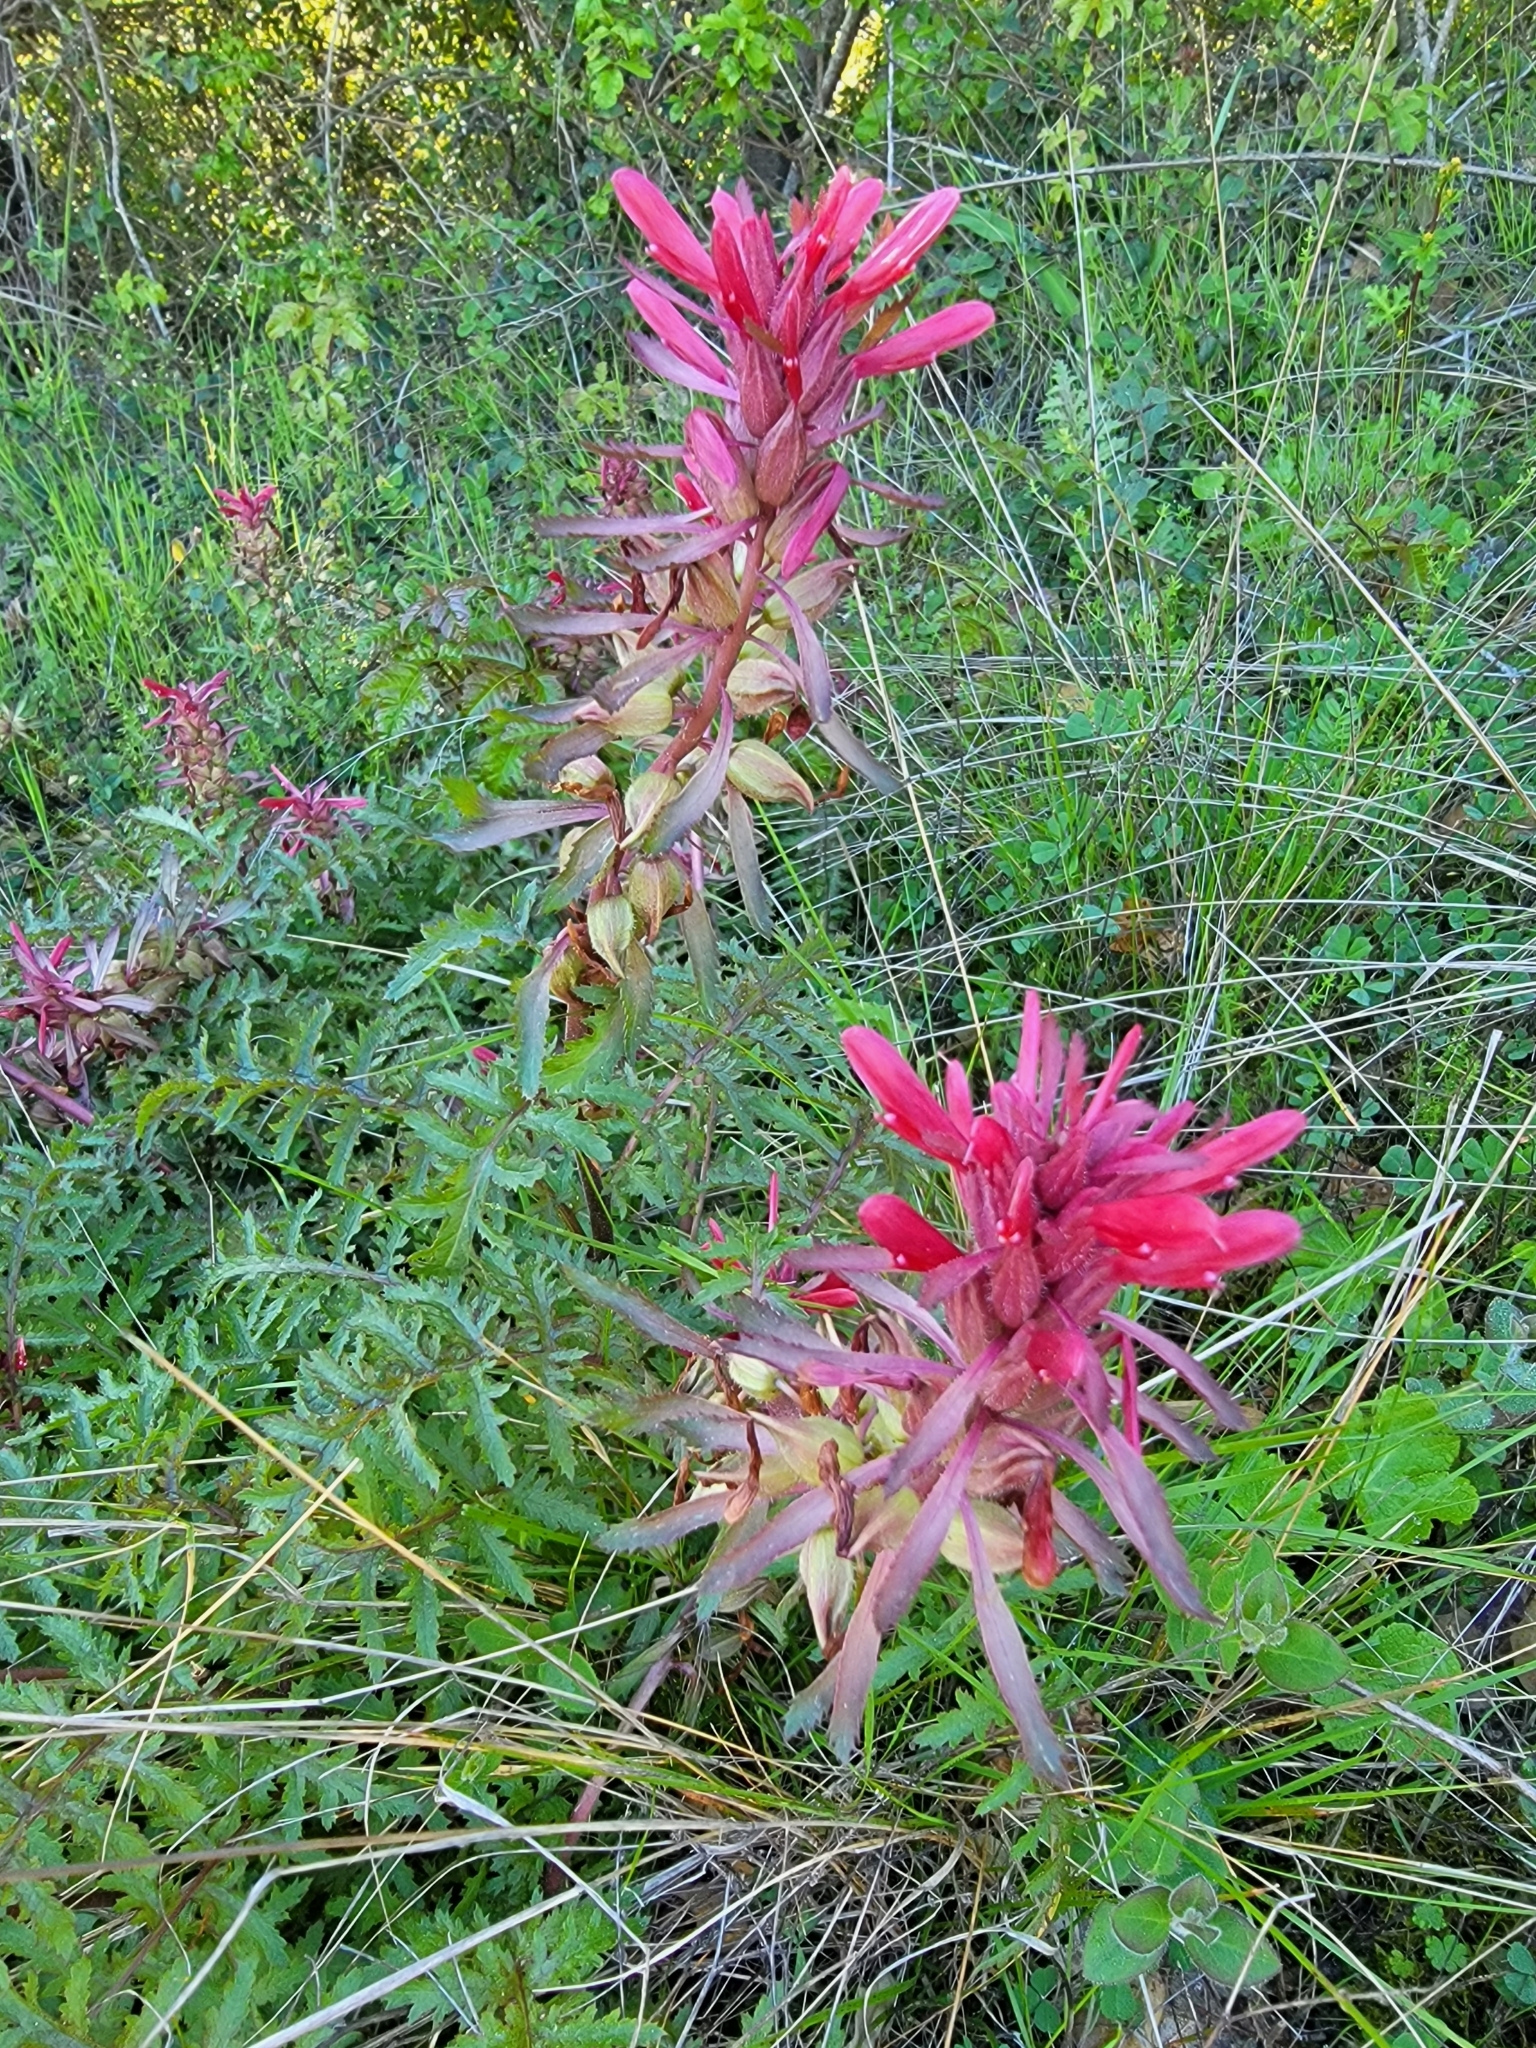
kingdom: Plantae
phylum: Tracheophyta
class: Magnoliopsida
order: Lamiales
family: Orobanchaceae
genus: Pedicularis
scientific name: Pedicularis densiflora
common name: Indian warrior
